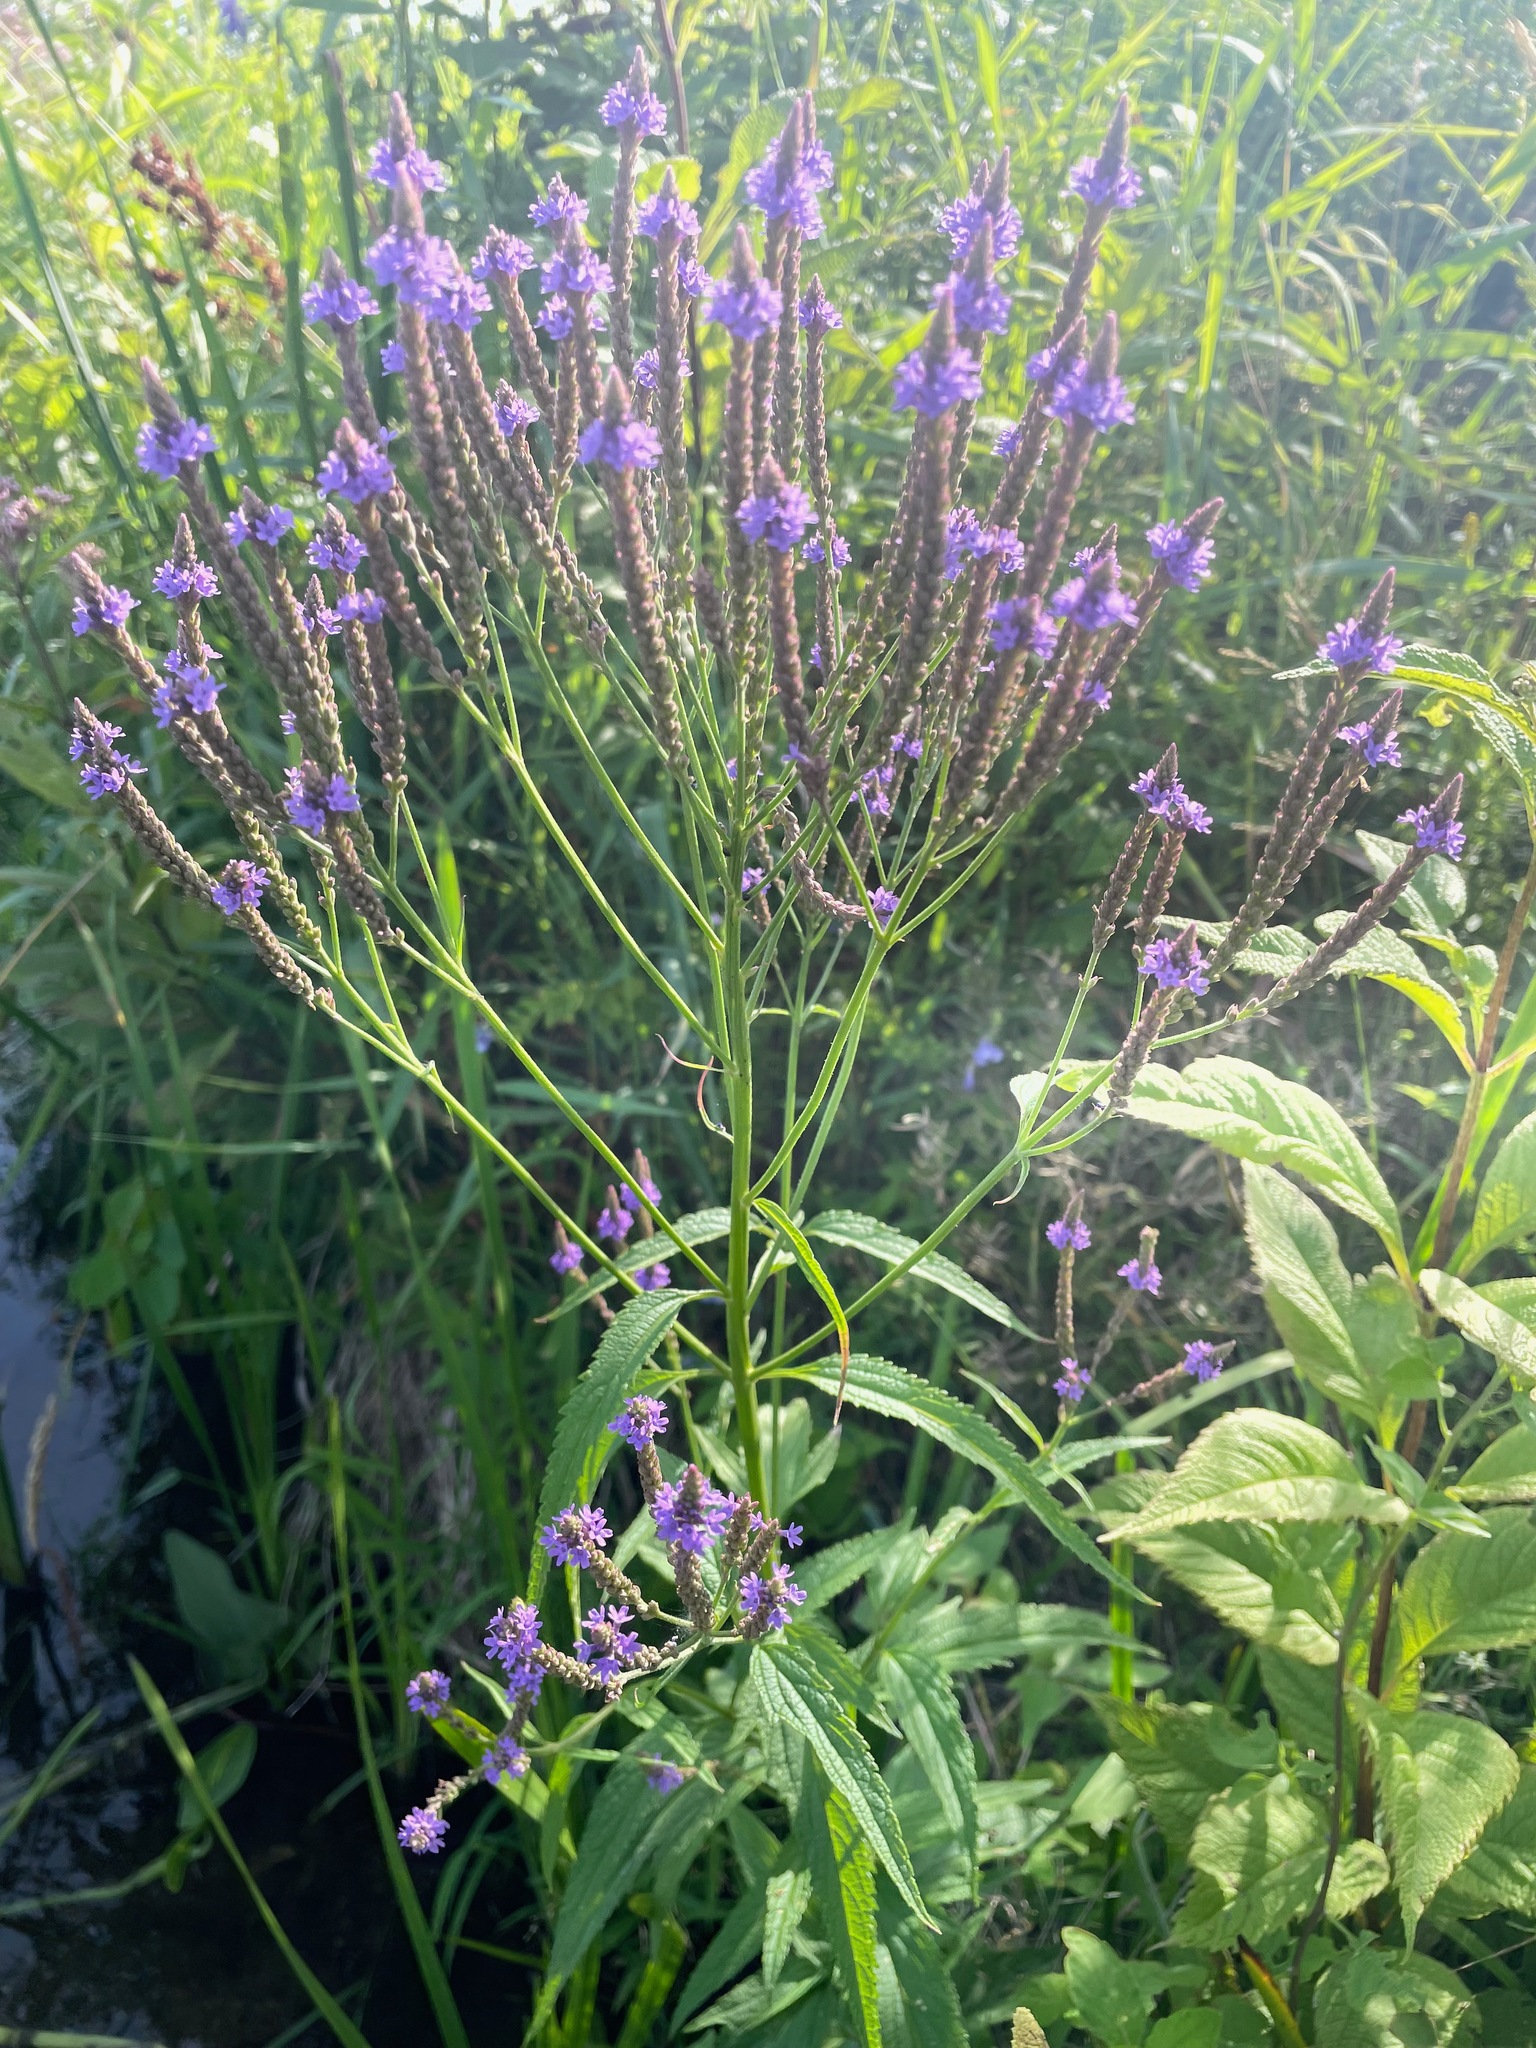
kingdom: Plantae
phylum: Tracheophyta
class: Magnoliopsida
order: Lamiales
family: Verbenaceae
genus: Verbena
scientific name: Verbena hastata
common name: American blue vervain
